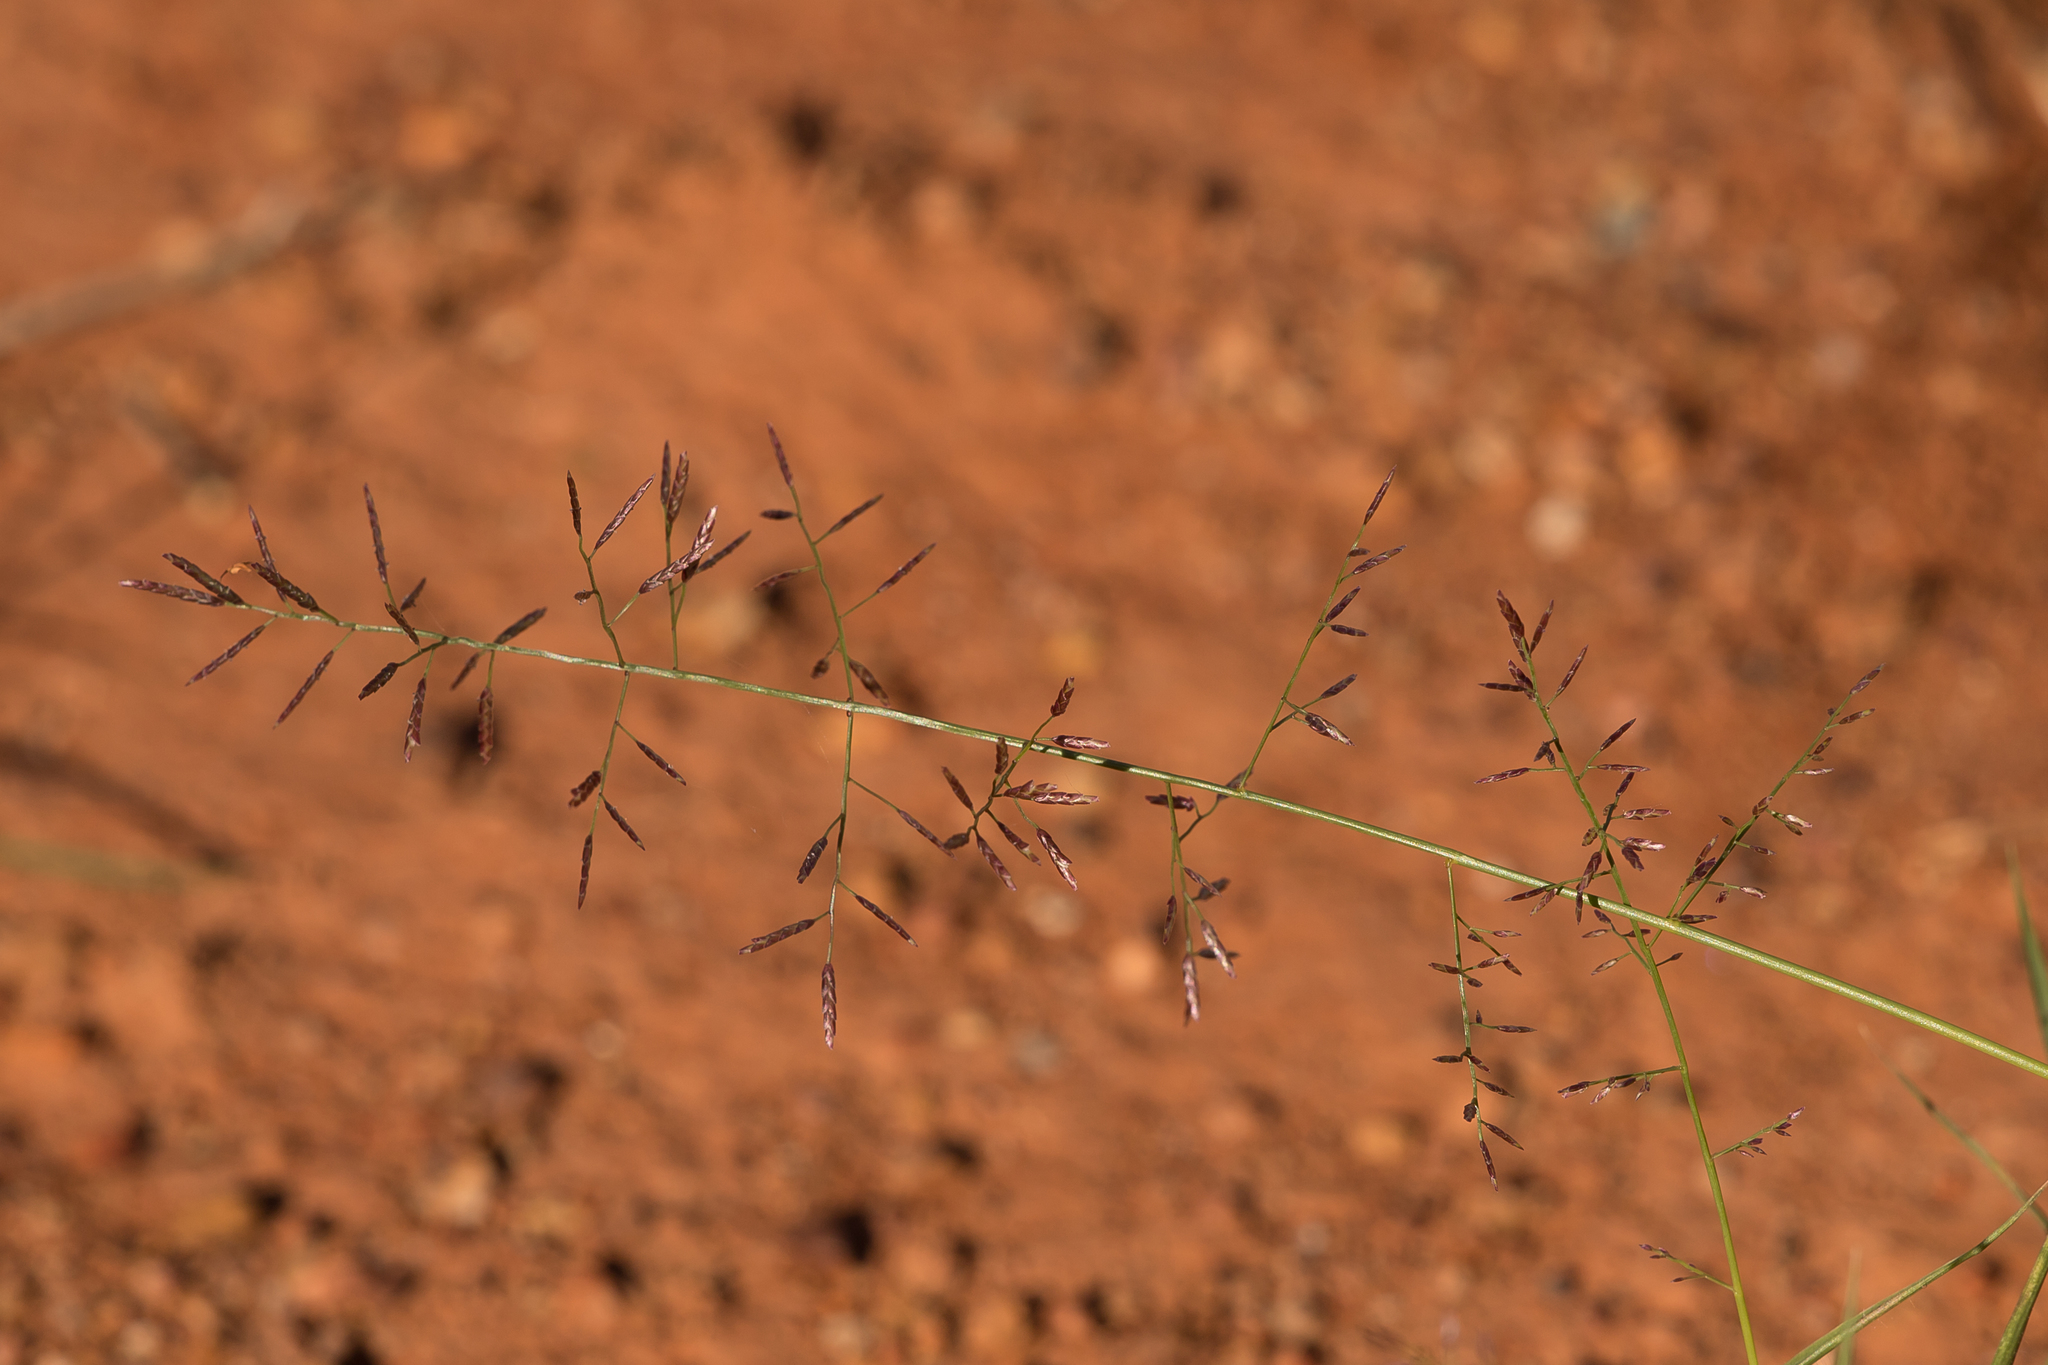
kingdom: Plantae
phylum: Tracheophyta
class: Liliopsida
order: Poales
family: Poaceae
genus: Eragrostis
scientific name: Eragrostis lacunaria
